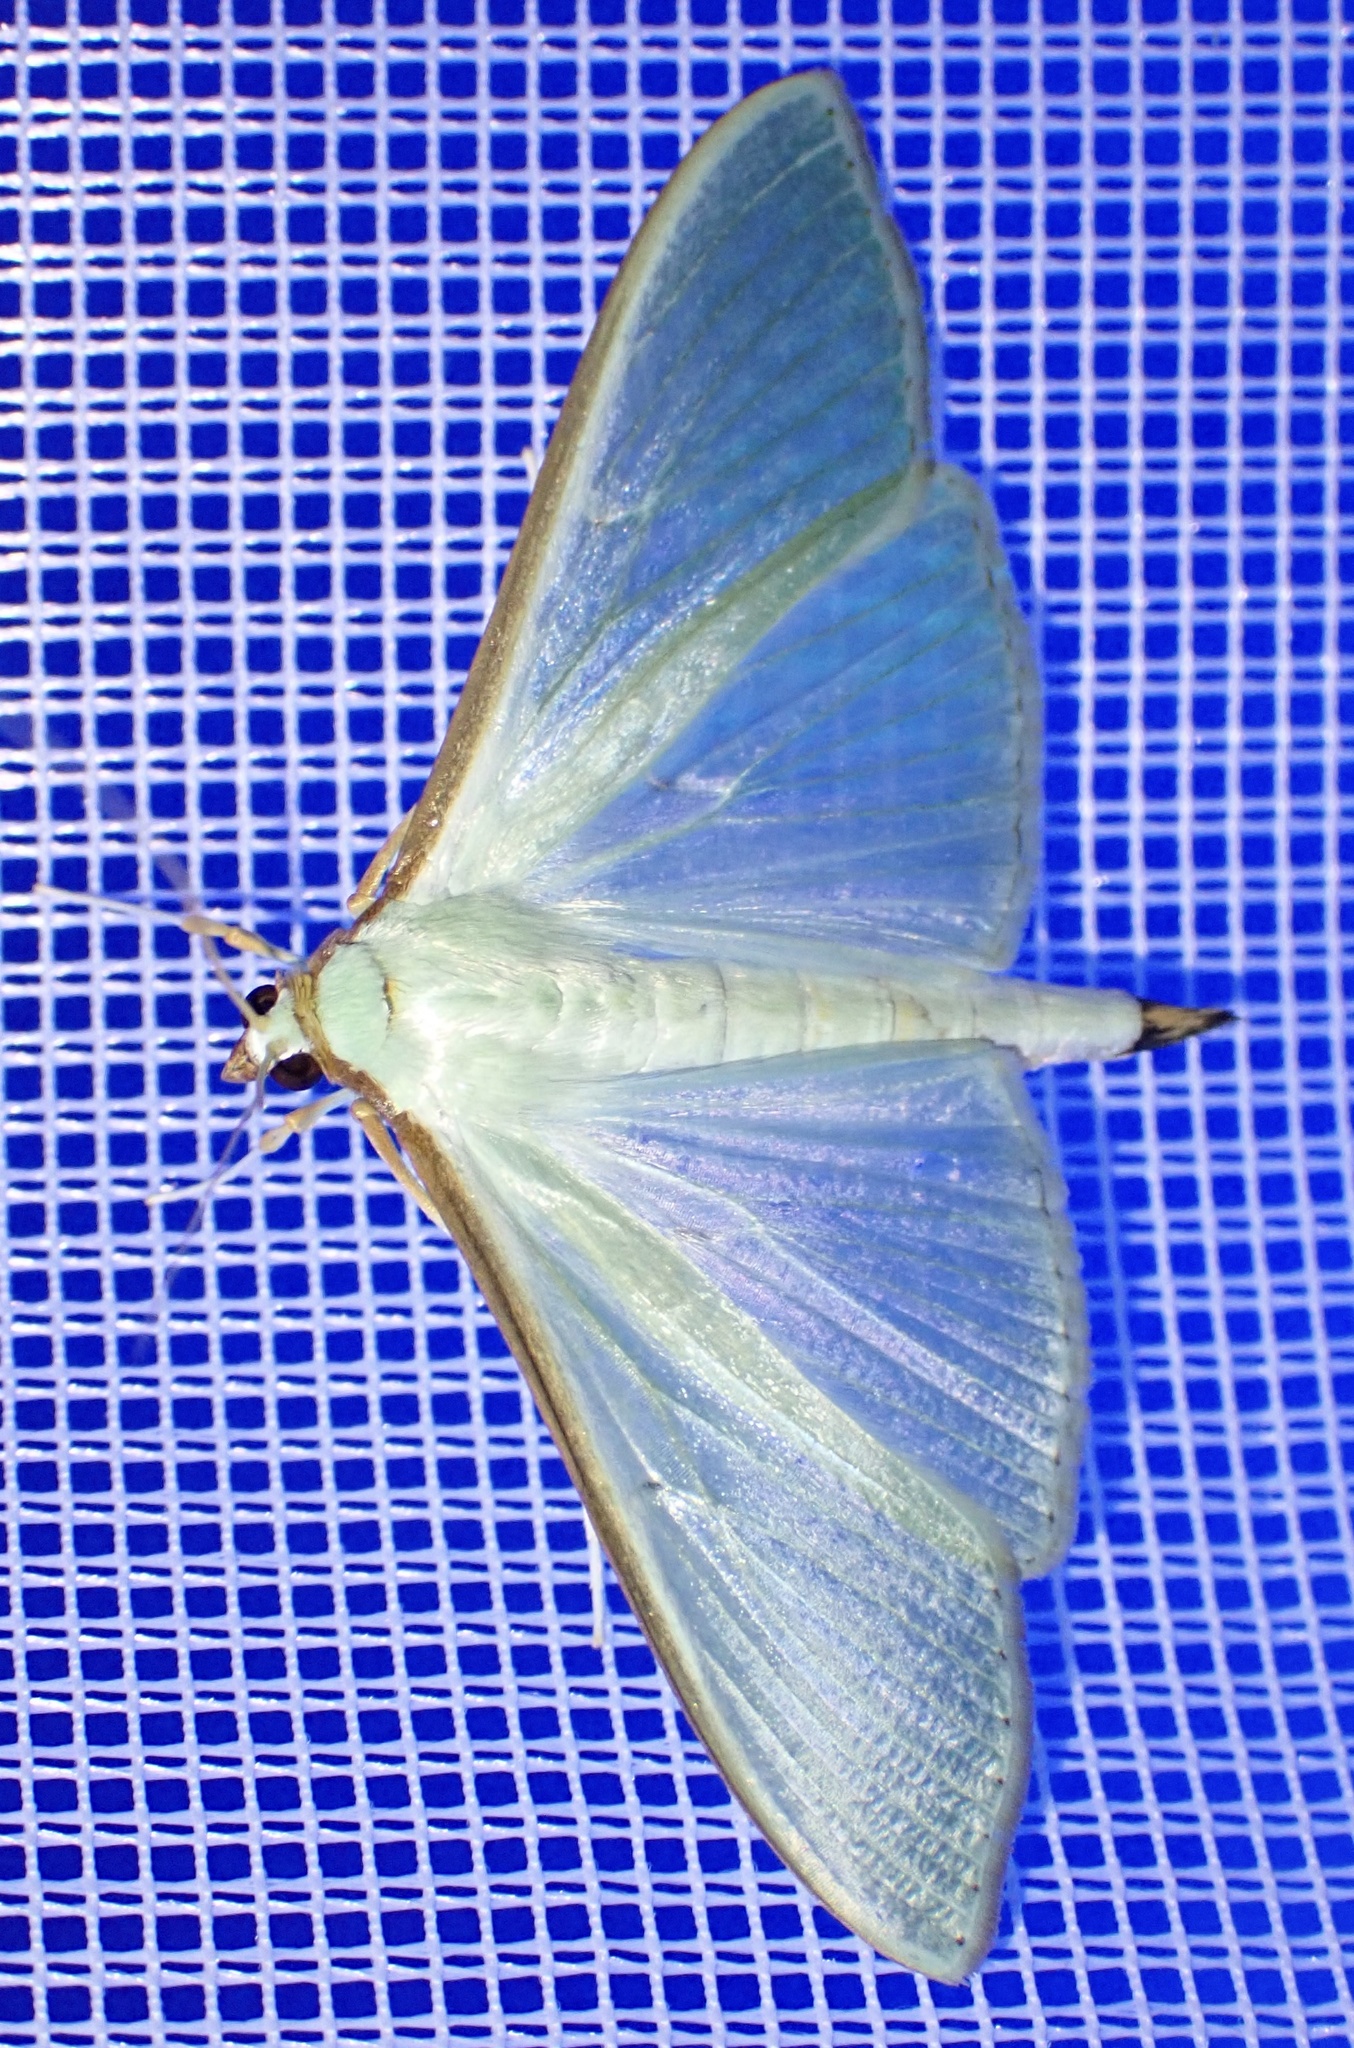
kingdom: Animalia
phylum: Arthropoda
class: Insecta
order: Lepidoptera
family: Crambidae
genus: Palpita
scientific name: Palpita vitrealis
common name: Olive-tree pearl
